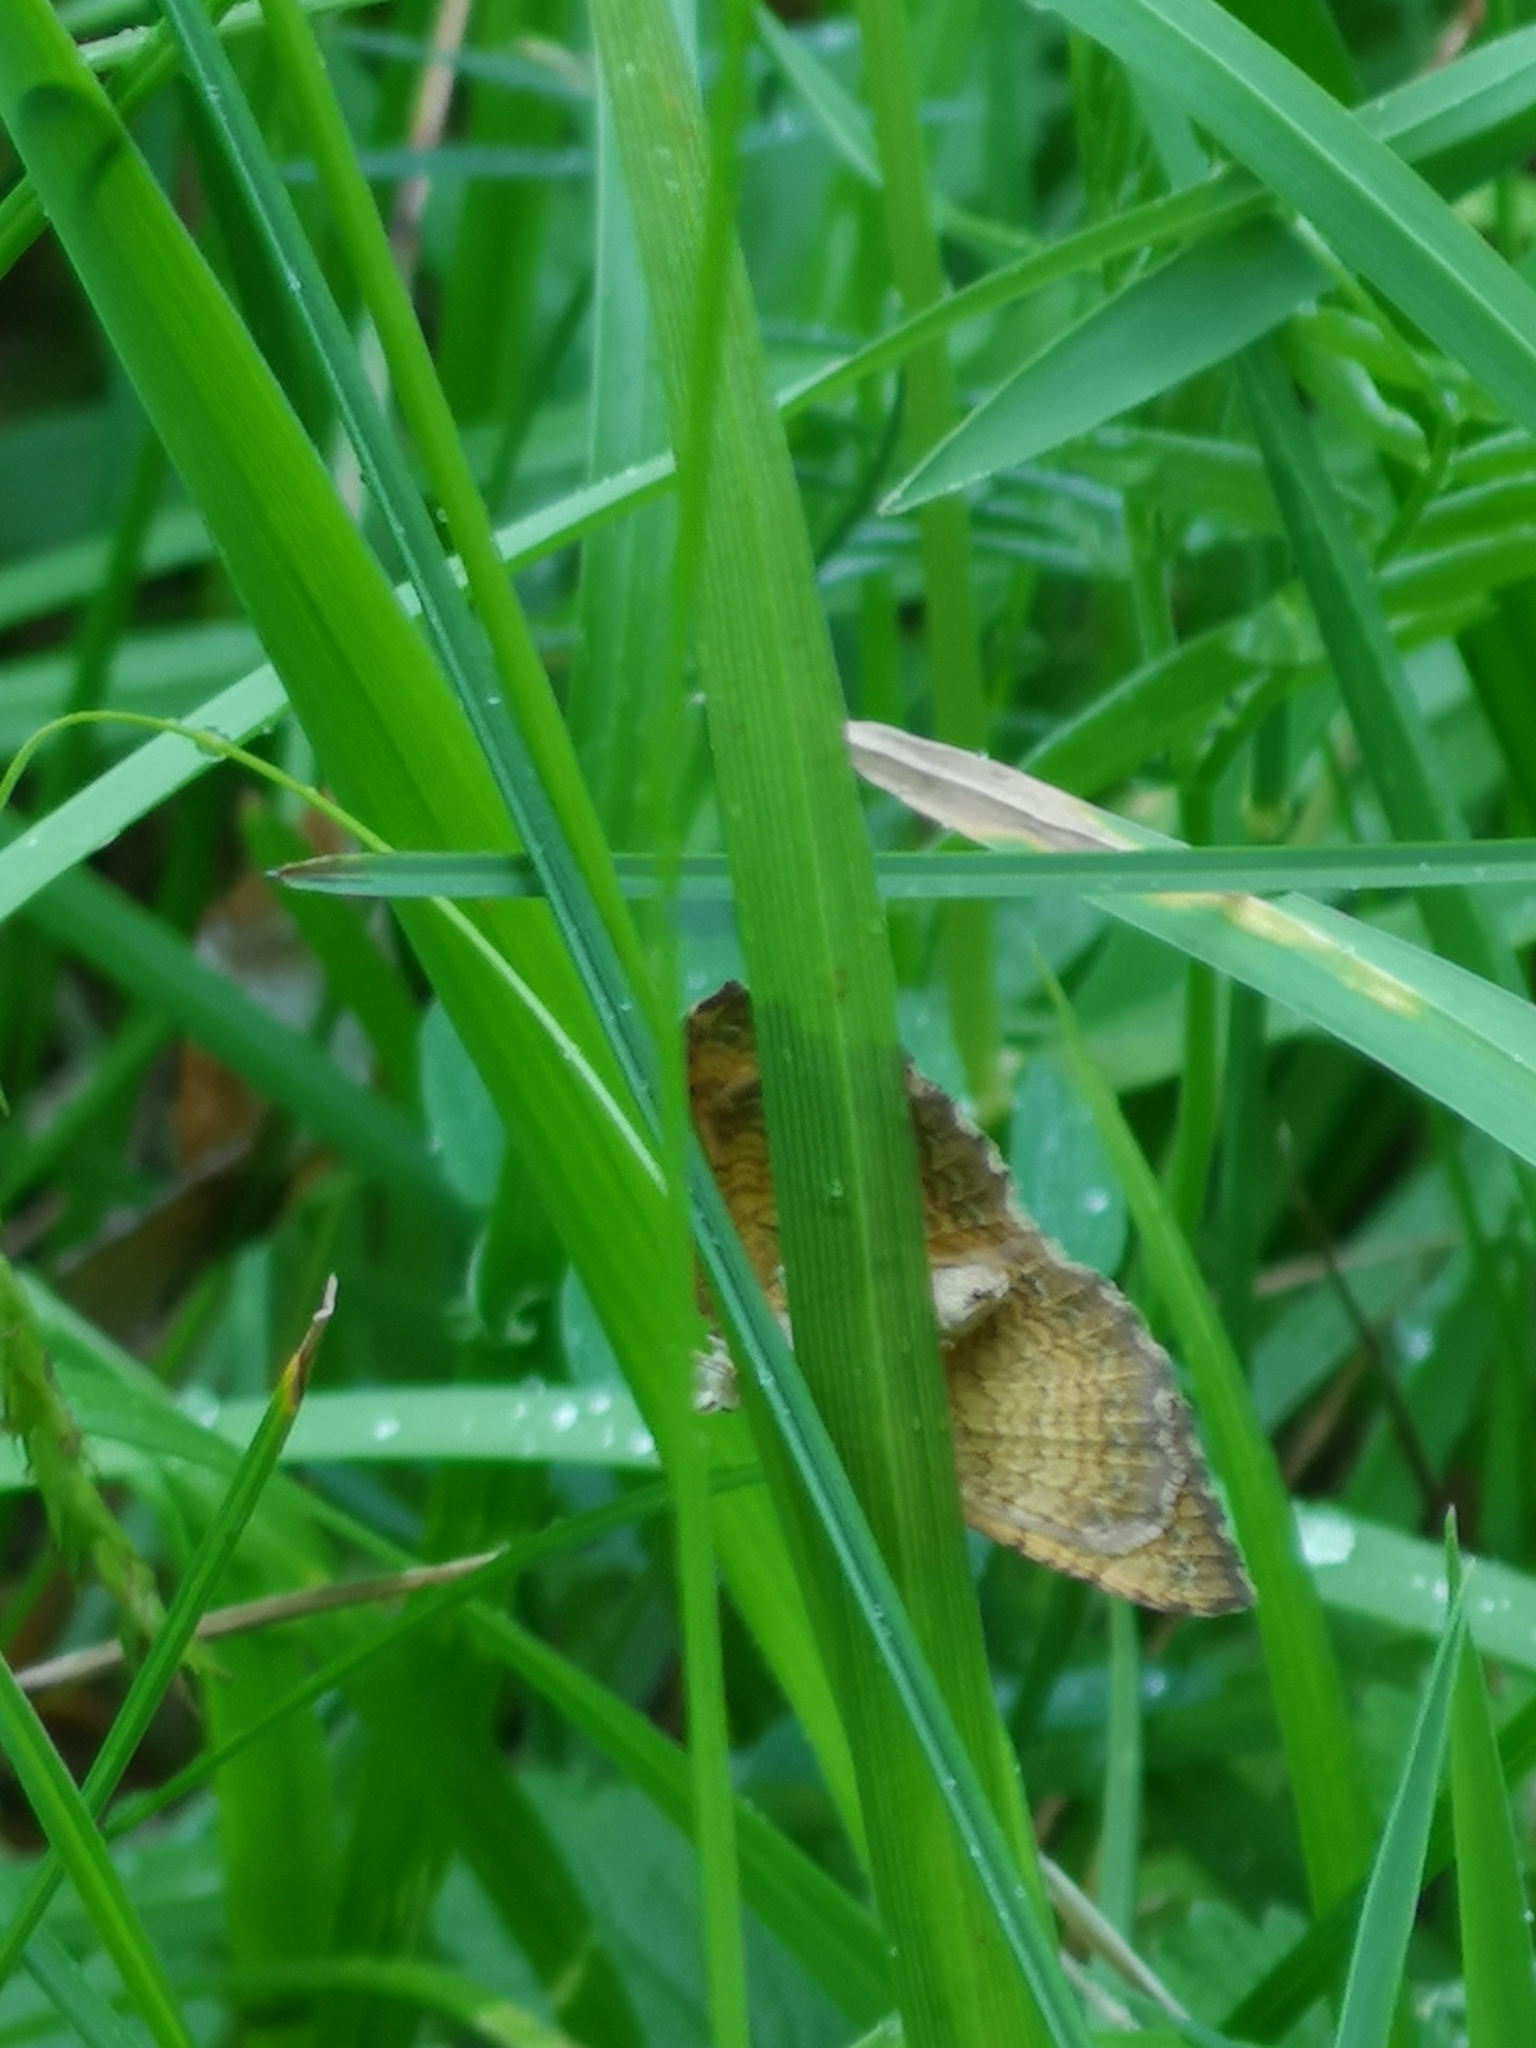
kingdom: Animalia
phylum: Arthropoda
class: Insecta
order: Lepidoptera
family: Geometridae
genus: Camptogramma
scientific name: Camptogramma bilineata
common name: Yellow shell
